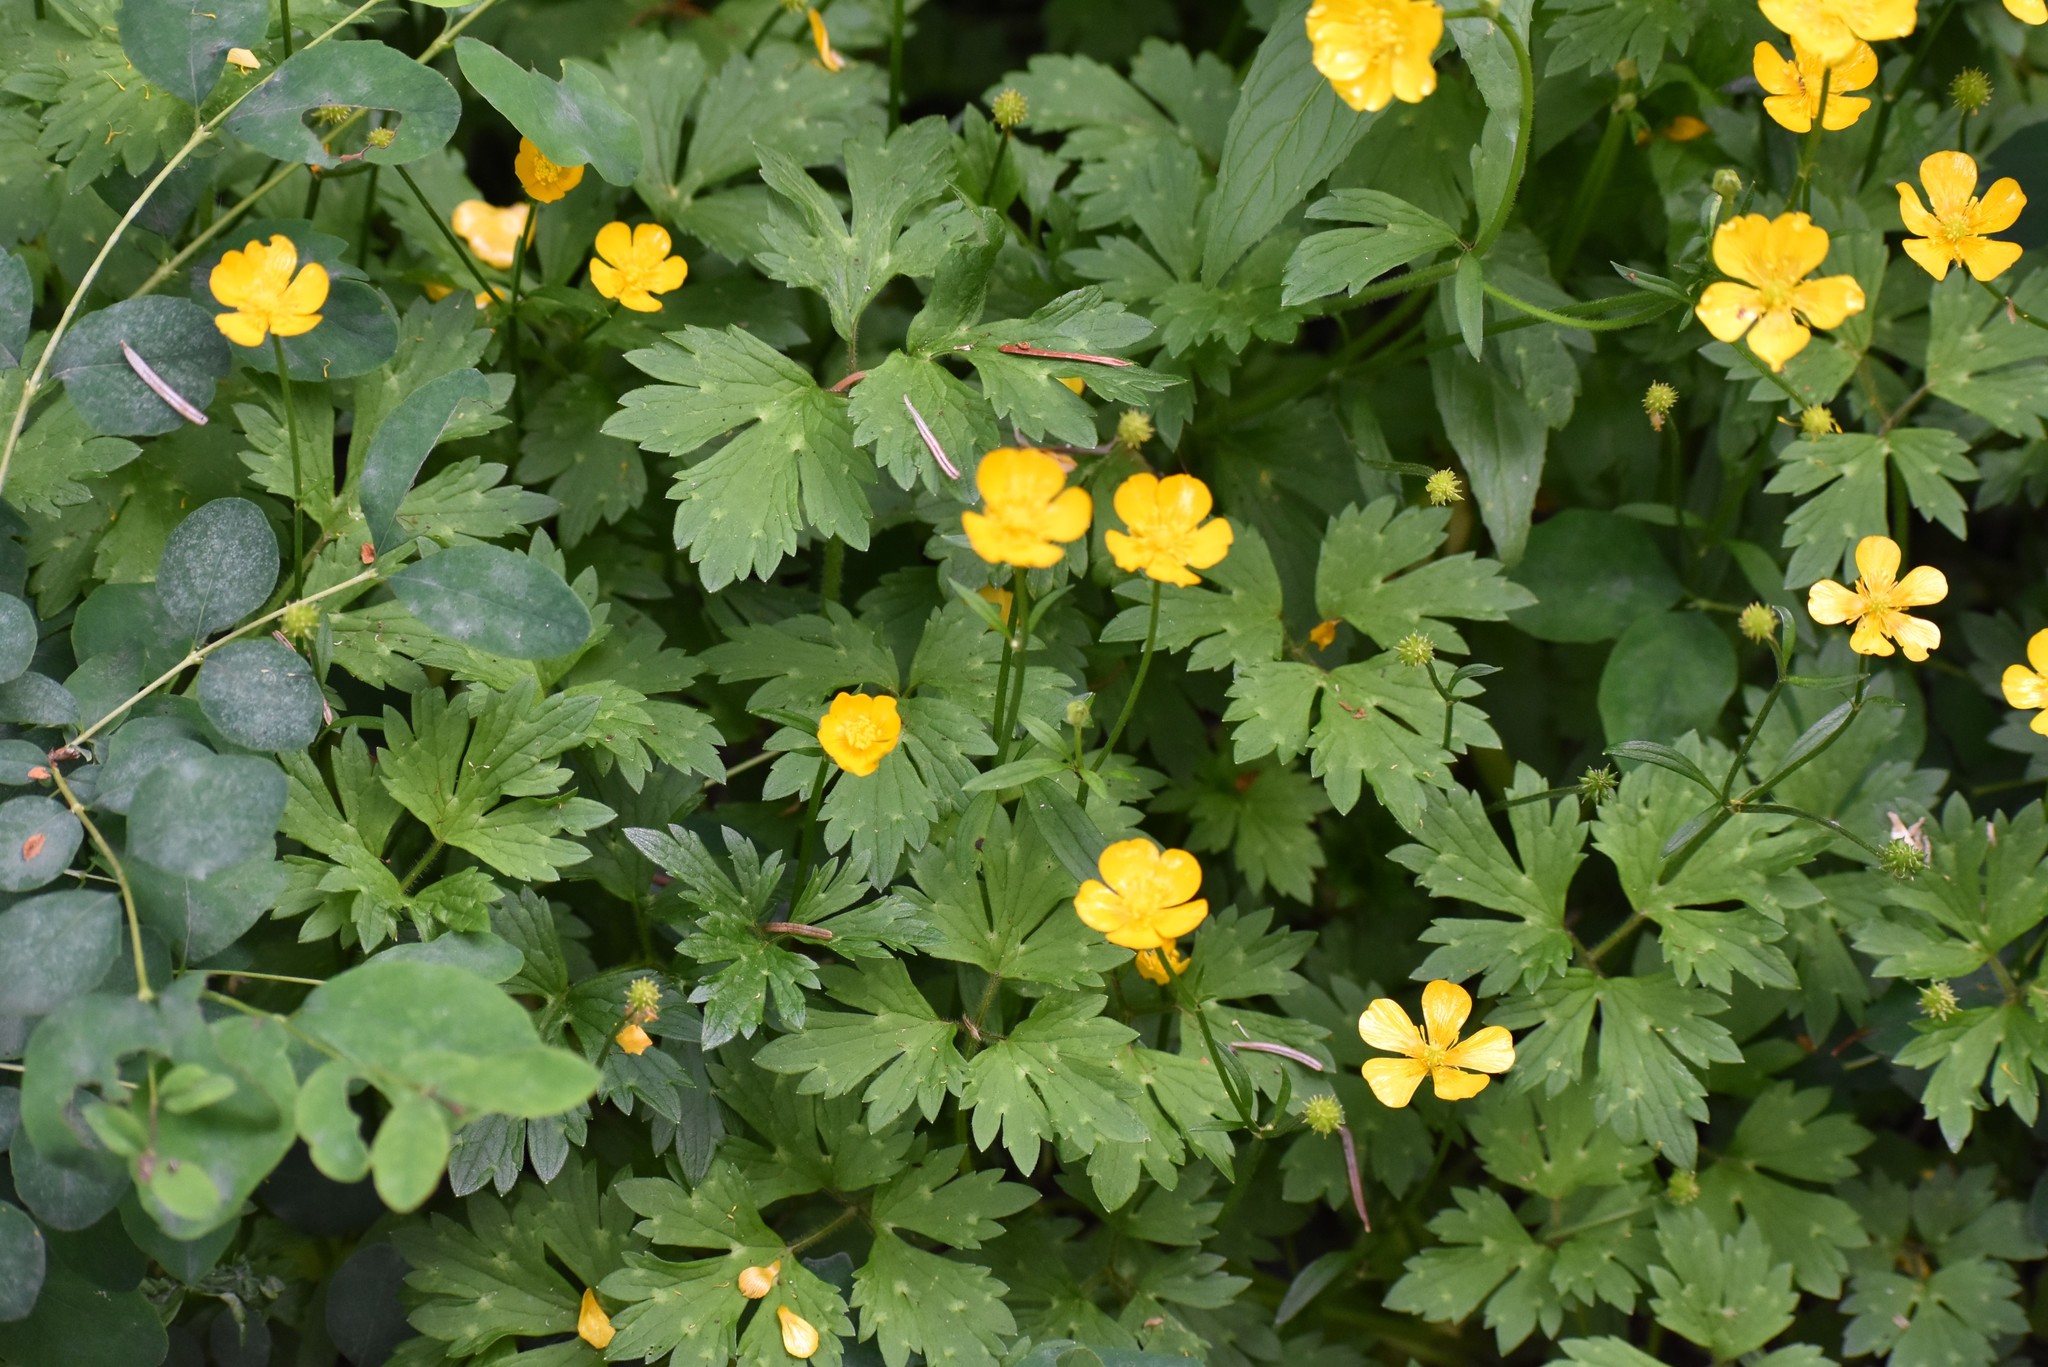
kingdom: Plantae
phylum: Tracheophyta
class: Magnoliopsida
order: Ranunculales
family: Ranunculaceae
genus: Ranunculus
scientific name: Ranunculus repens
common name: Creeping buttercup
